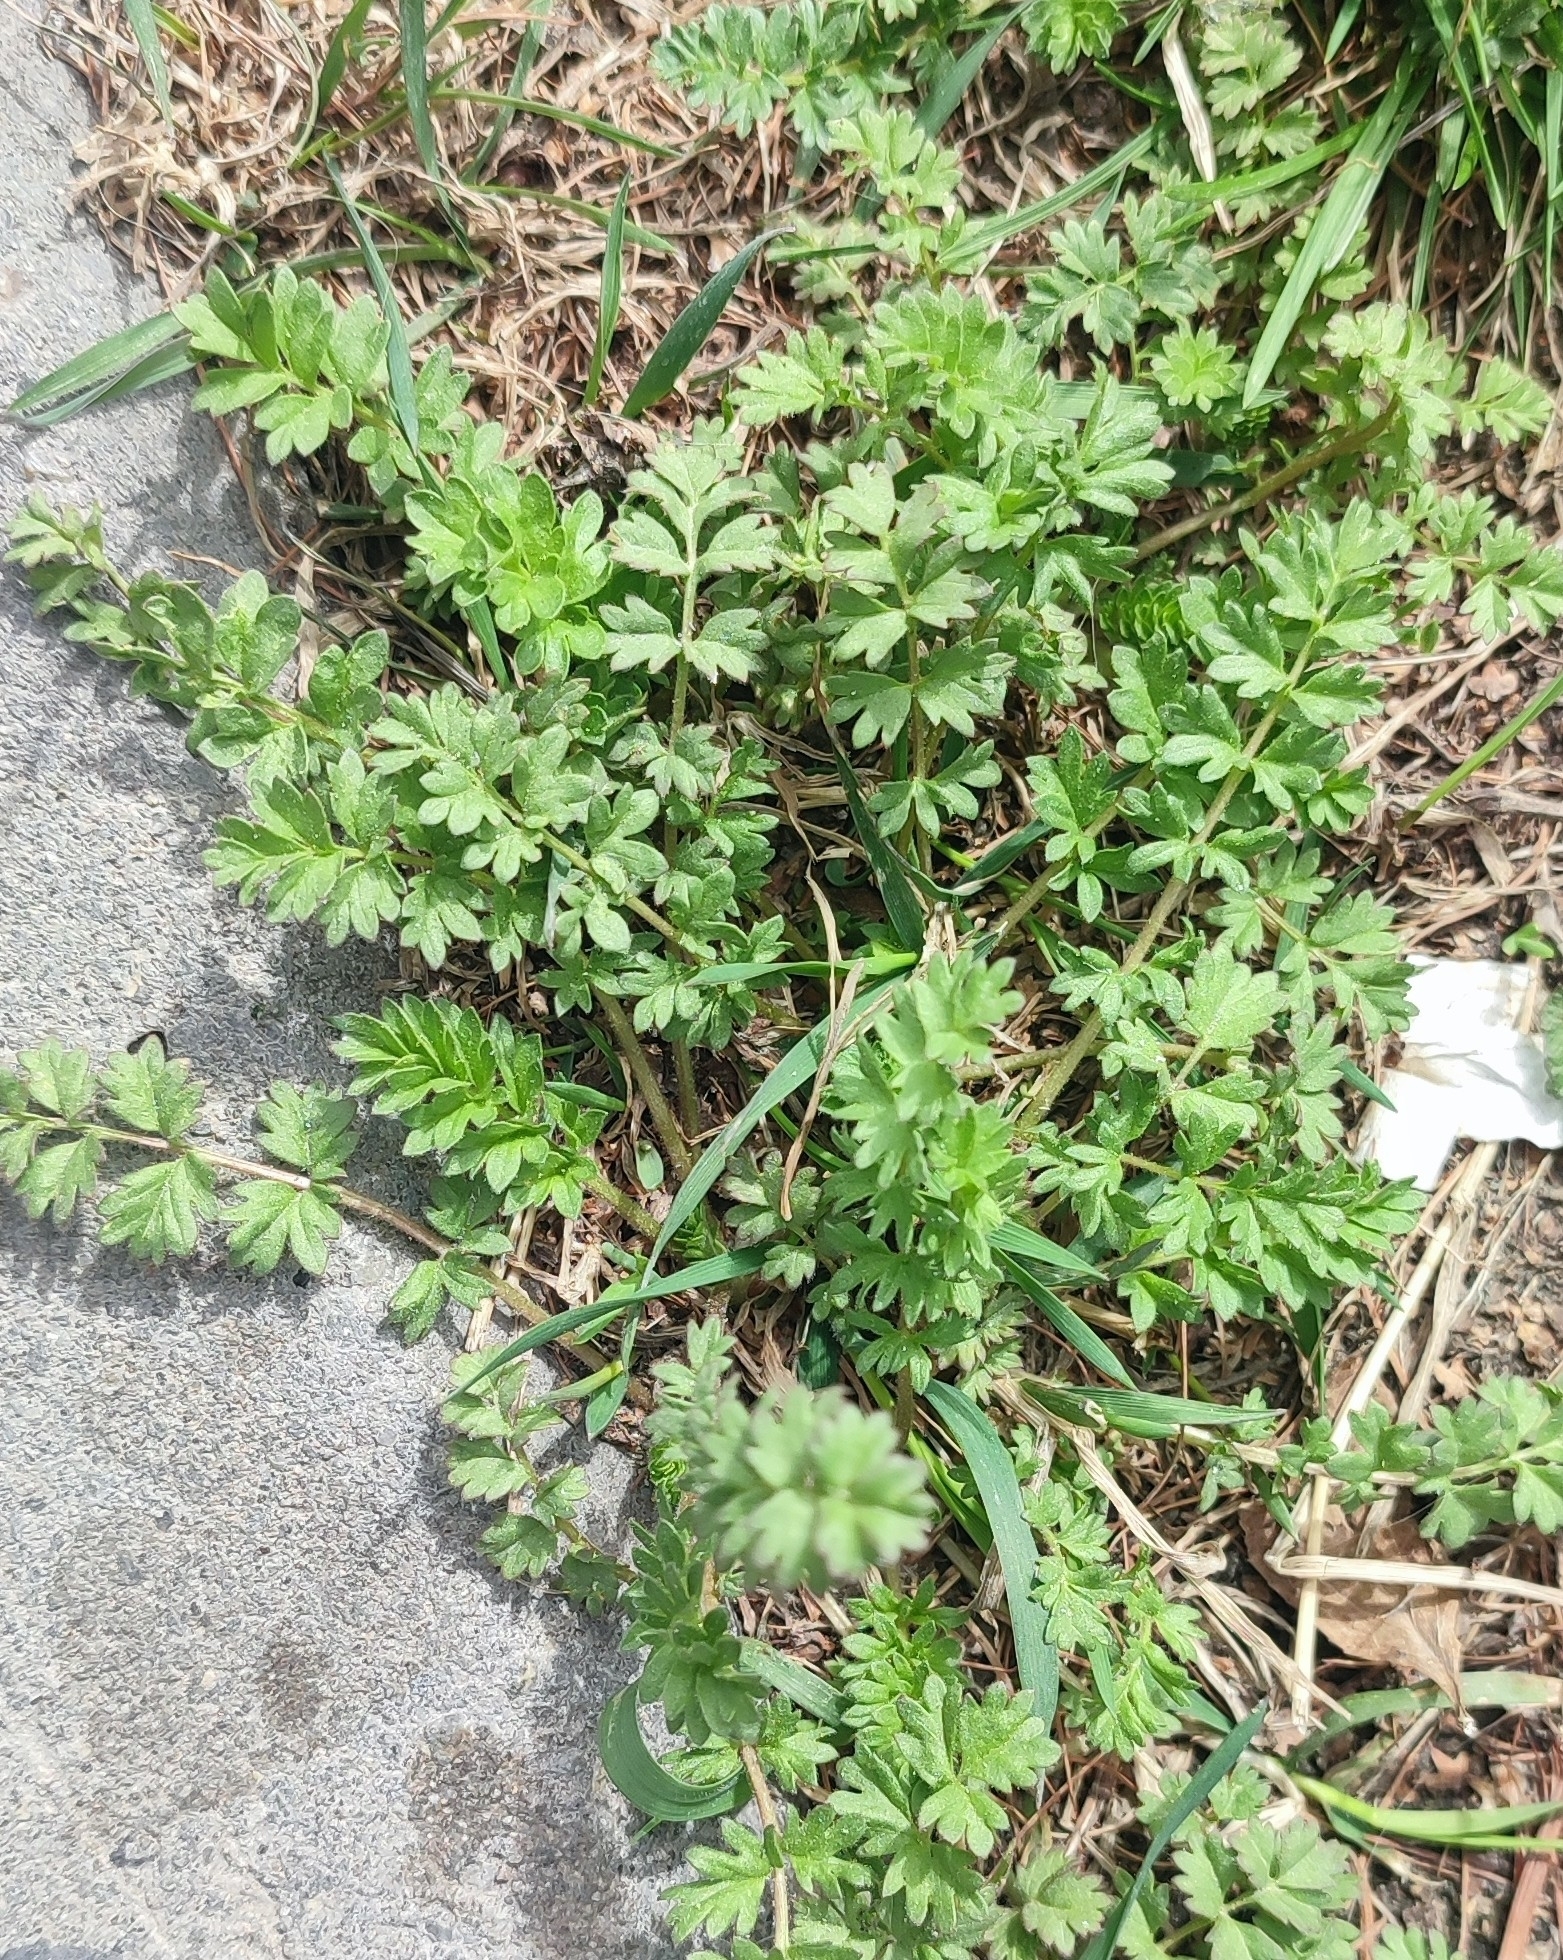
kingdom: Plantae
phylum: Tracheophyta
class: Magnoliopsida
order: Rosales
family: Rosaceae
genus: Potentilla
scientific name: Potentilla supina
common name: Prostrate cinquefoil
